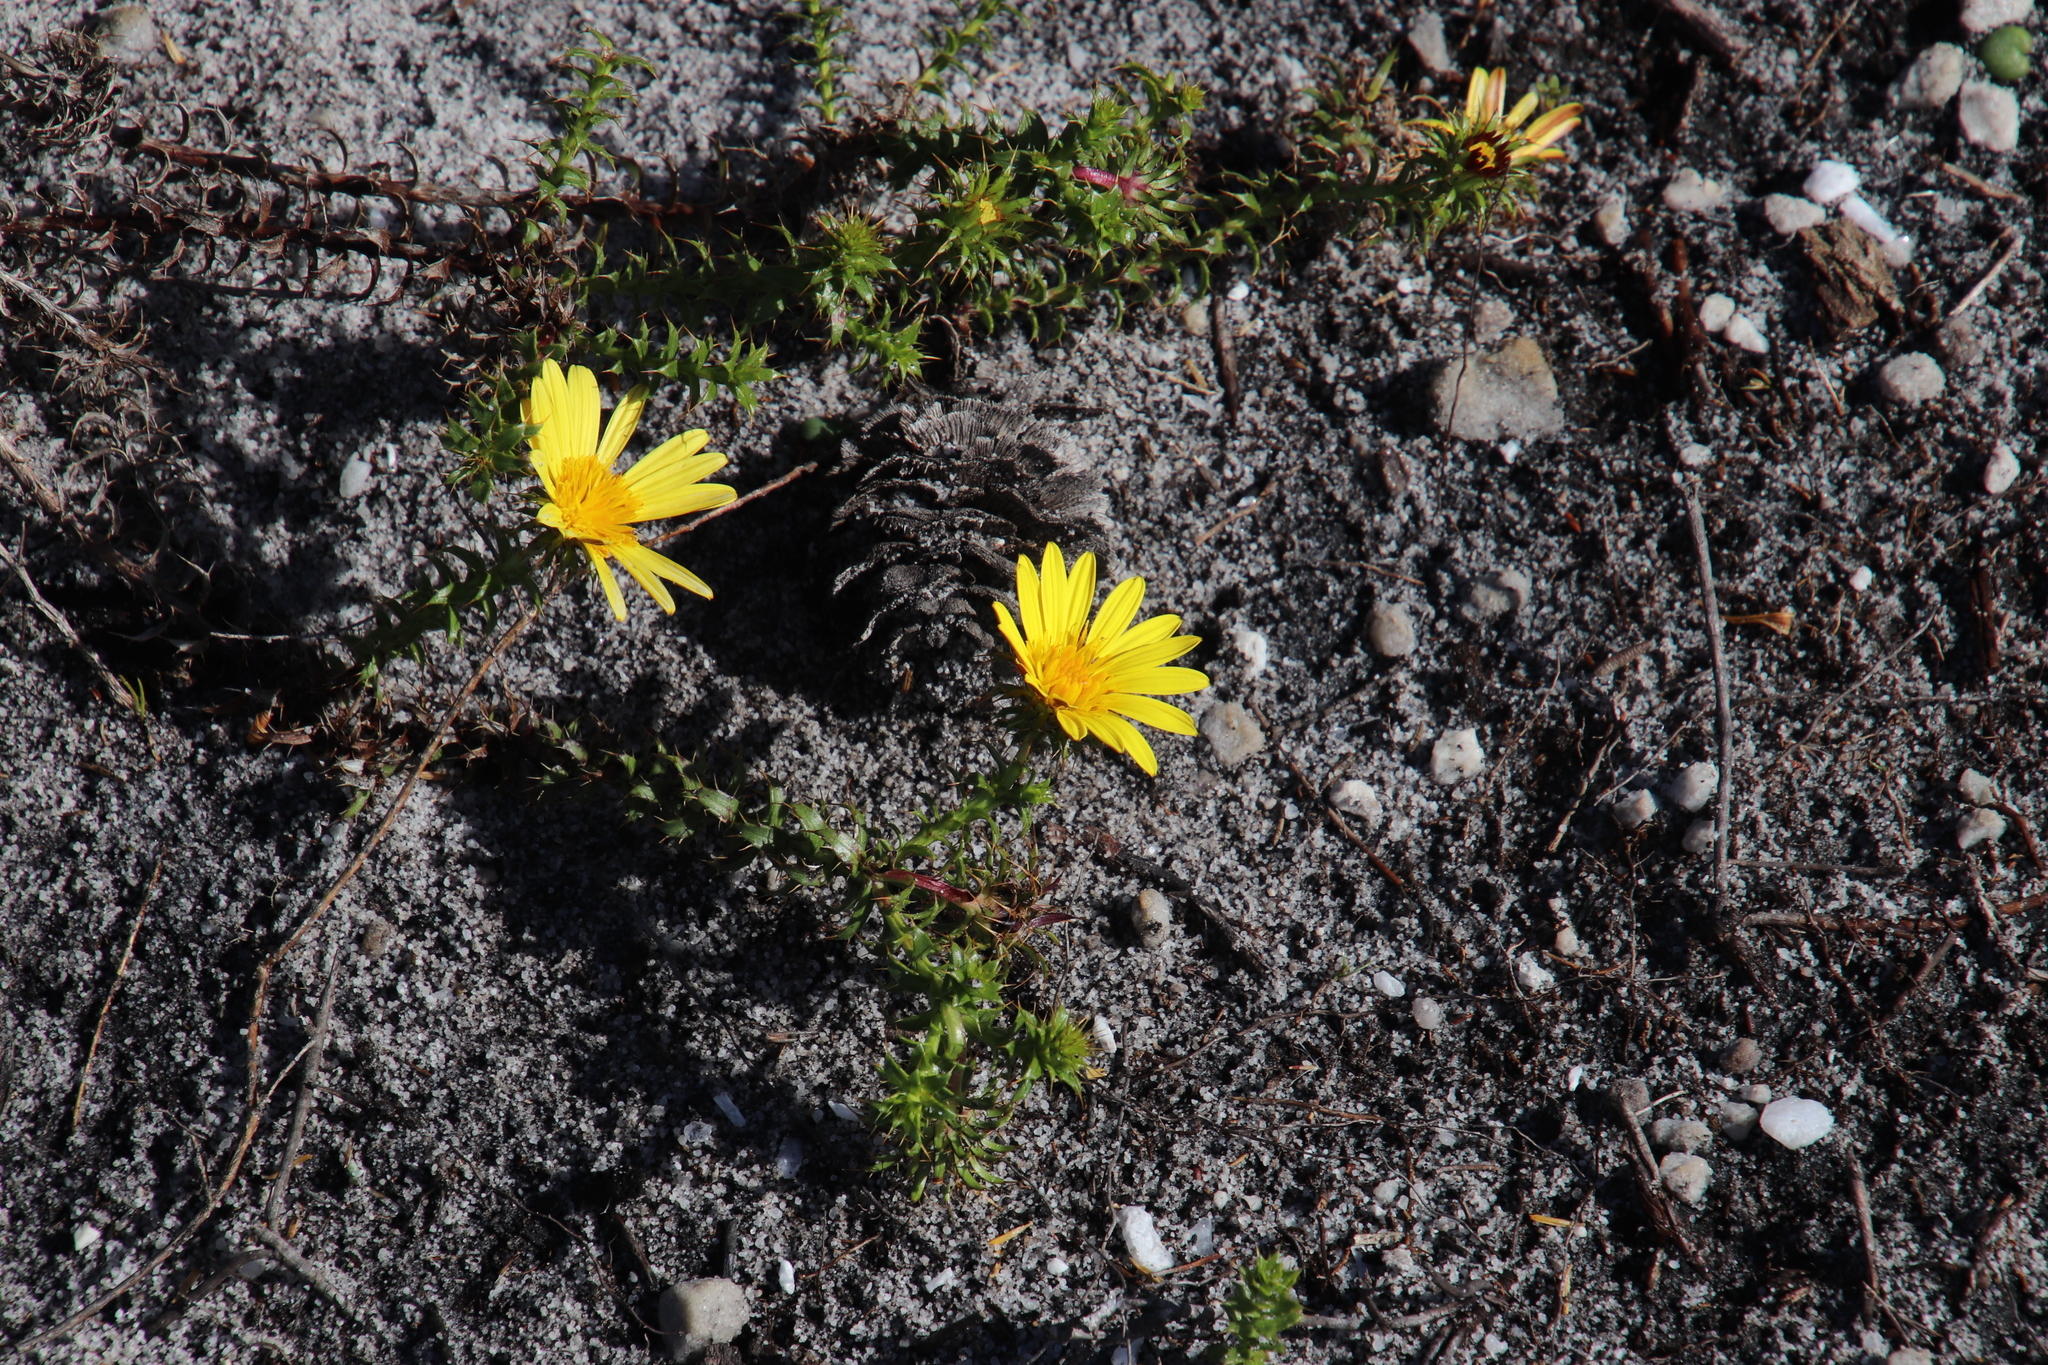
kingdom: Plantae
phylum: Tracheophyta
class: Magnoliopsida
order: Asterales
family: Asteraceae
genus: Cullumia
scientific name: Cullumia setosa
